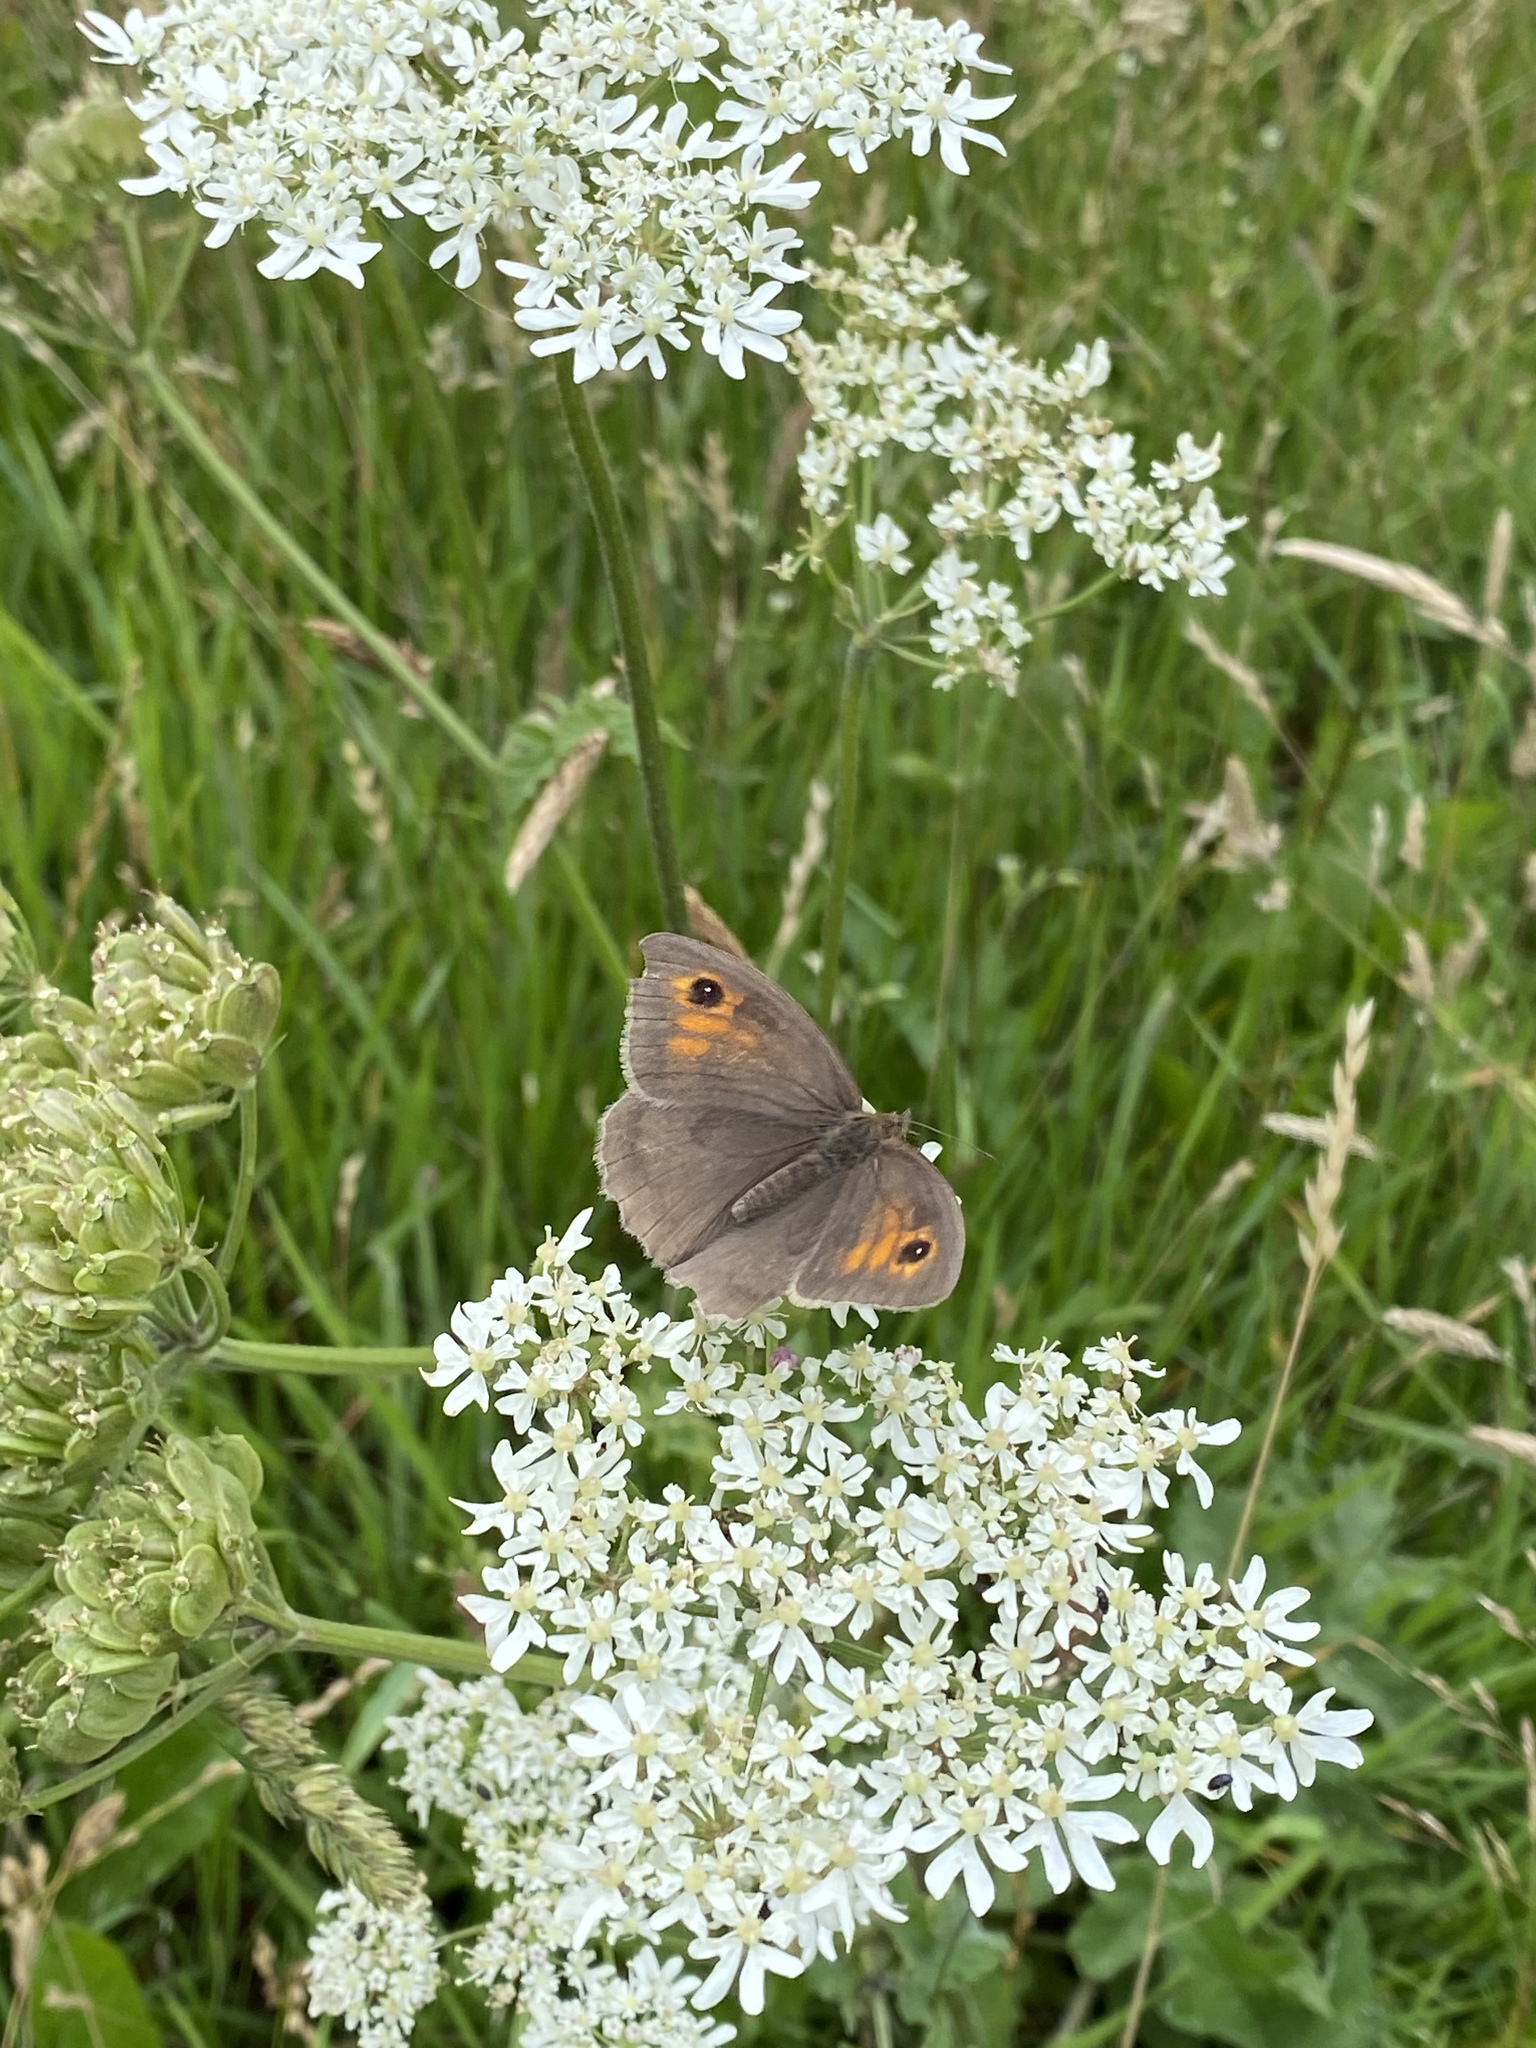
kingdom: Animalia
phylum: Arthropoda
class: Insecta
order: Lepidoptera
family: Nymphalidae
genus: Maniola
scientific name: Maniola jurtina
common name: Meadow brown
